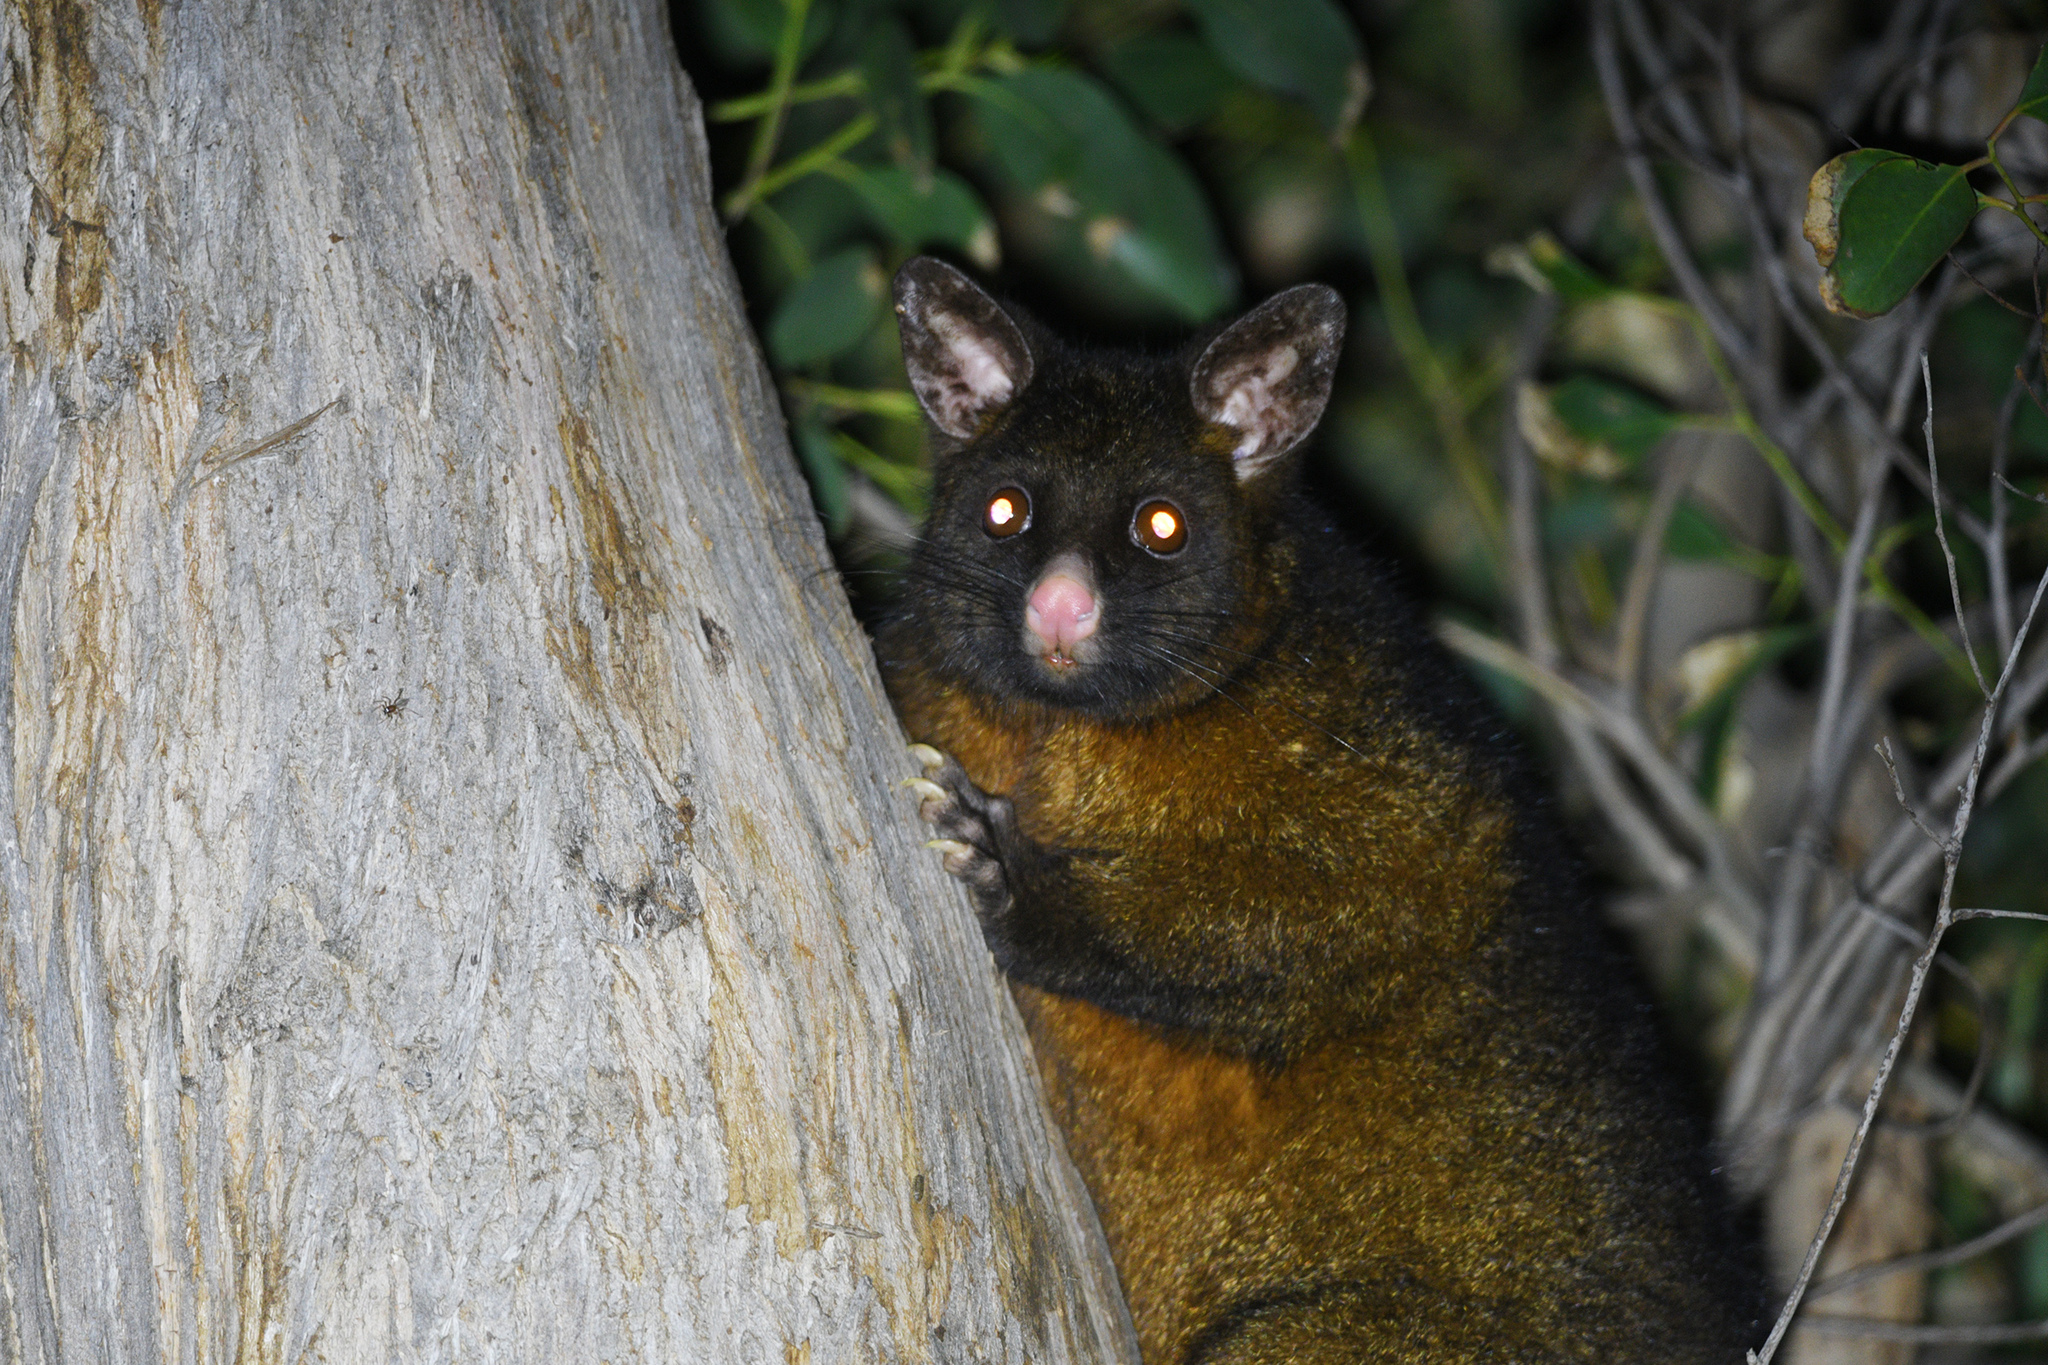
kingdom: Animalia
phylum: Chordata
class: Mammalia
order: Diprotodontia
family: Phalangeridae
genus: Trichosurus
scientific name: Trichosurus vulpecula
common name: Common brushtail
